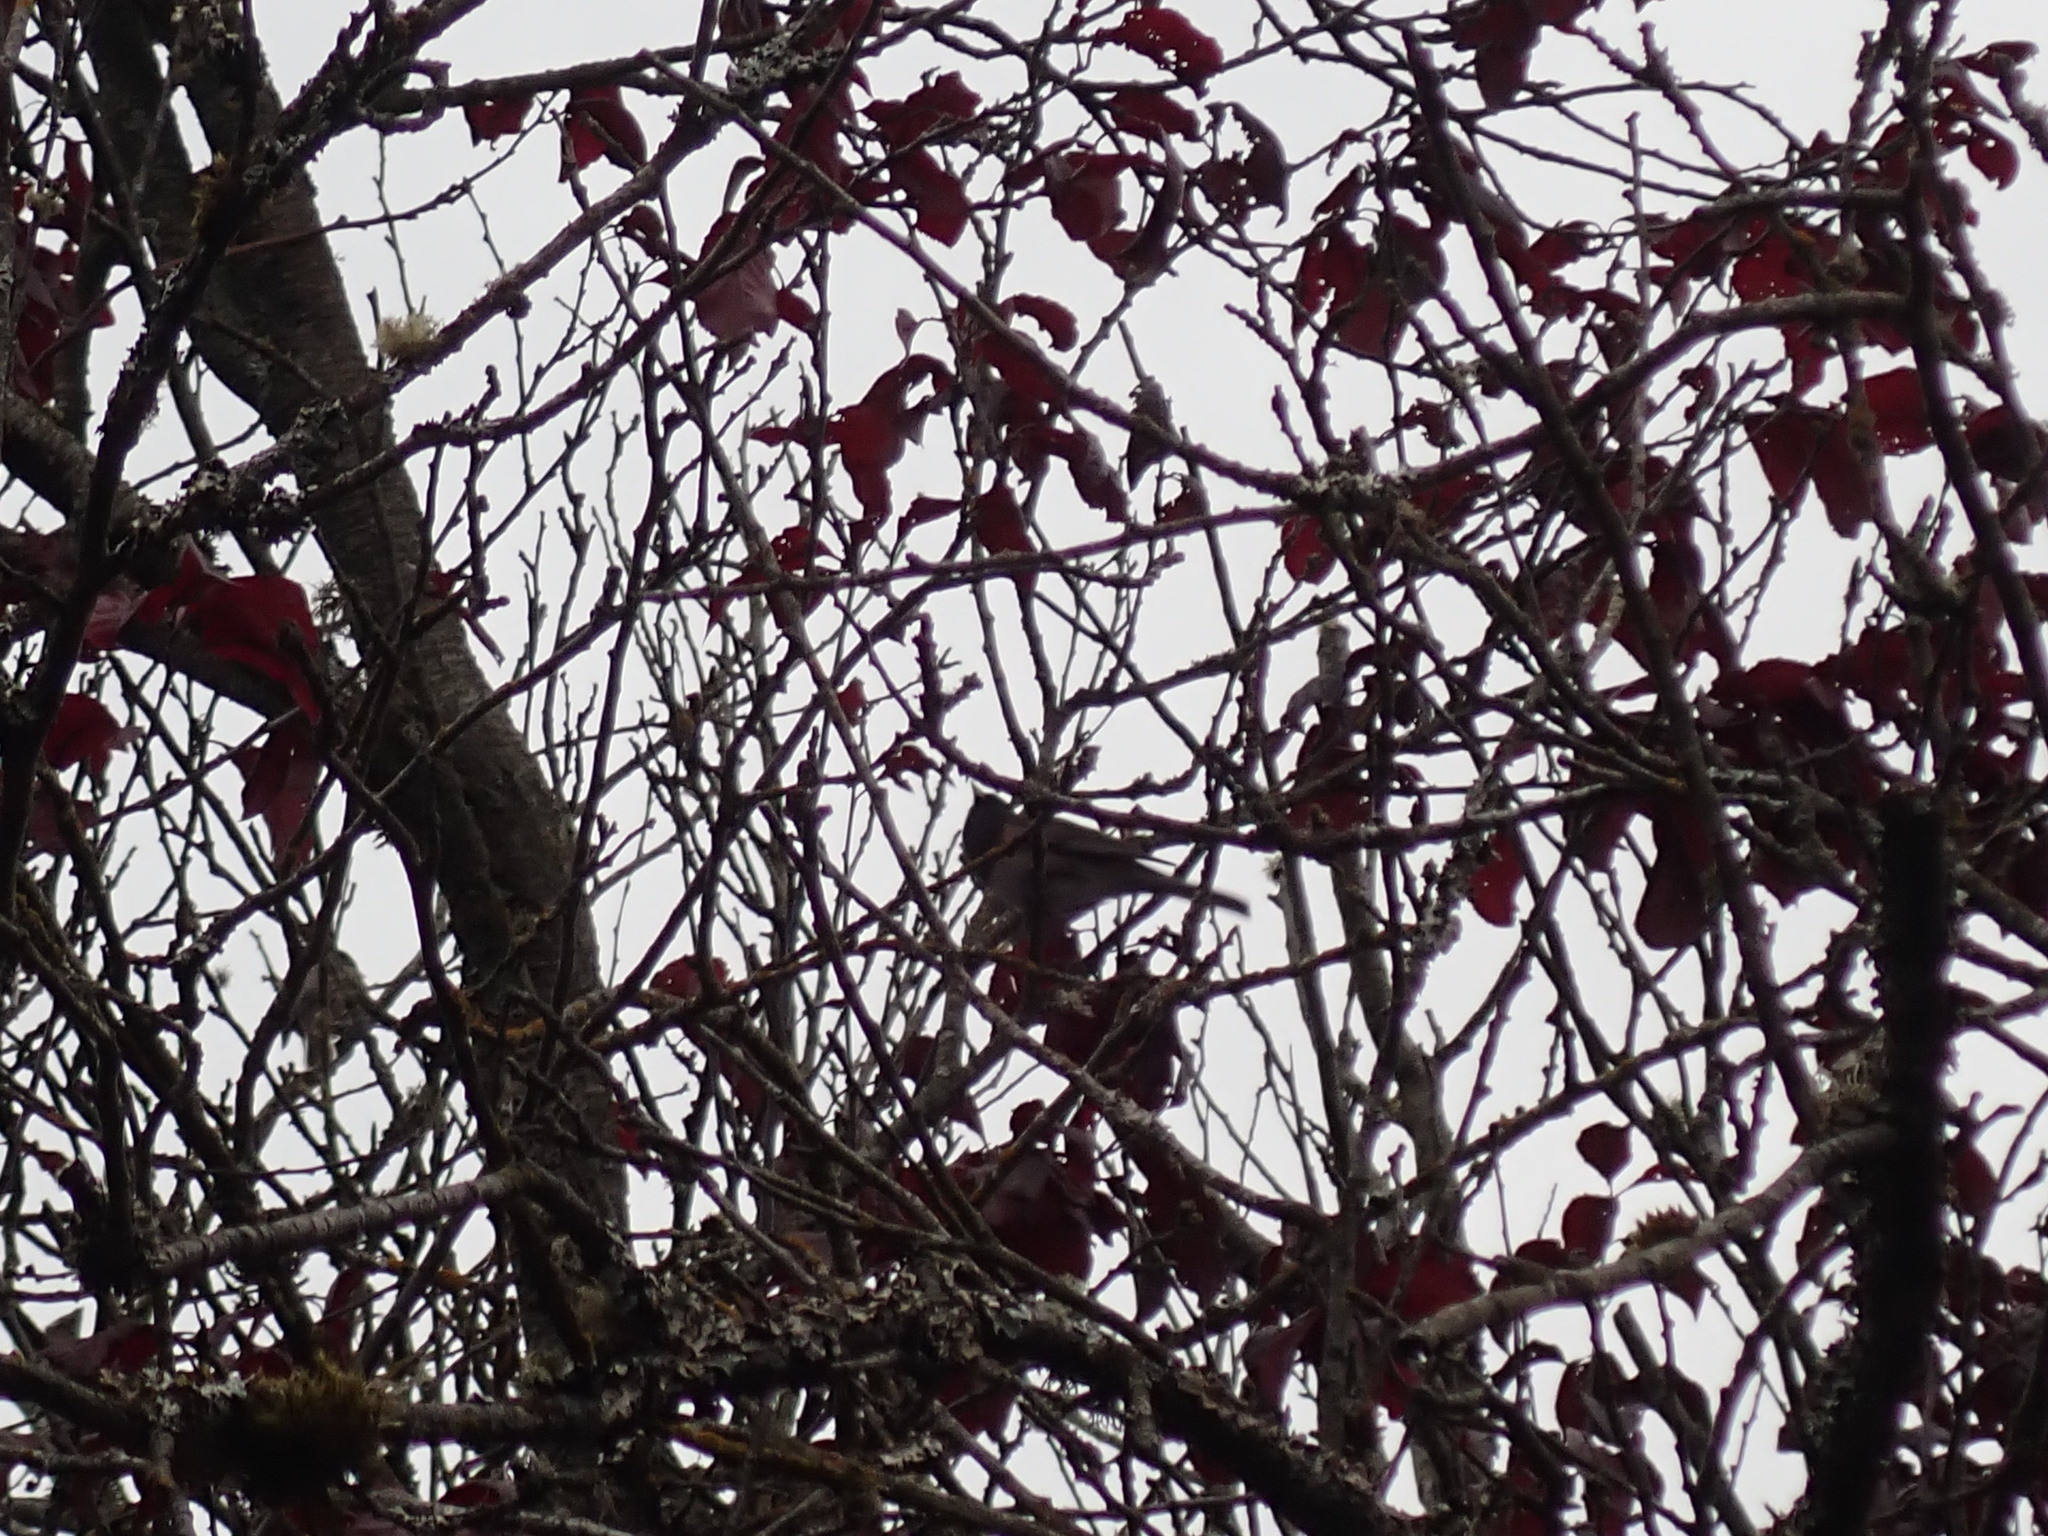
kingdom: Animalia
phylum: Chordata
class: Aves
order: Passeriformes
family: Passerellidae
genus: Junco
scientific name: Junco hyemalis
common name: Dark-eyed junco
